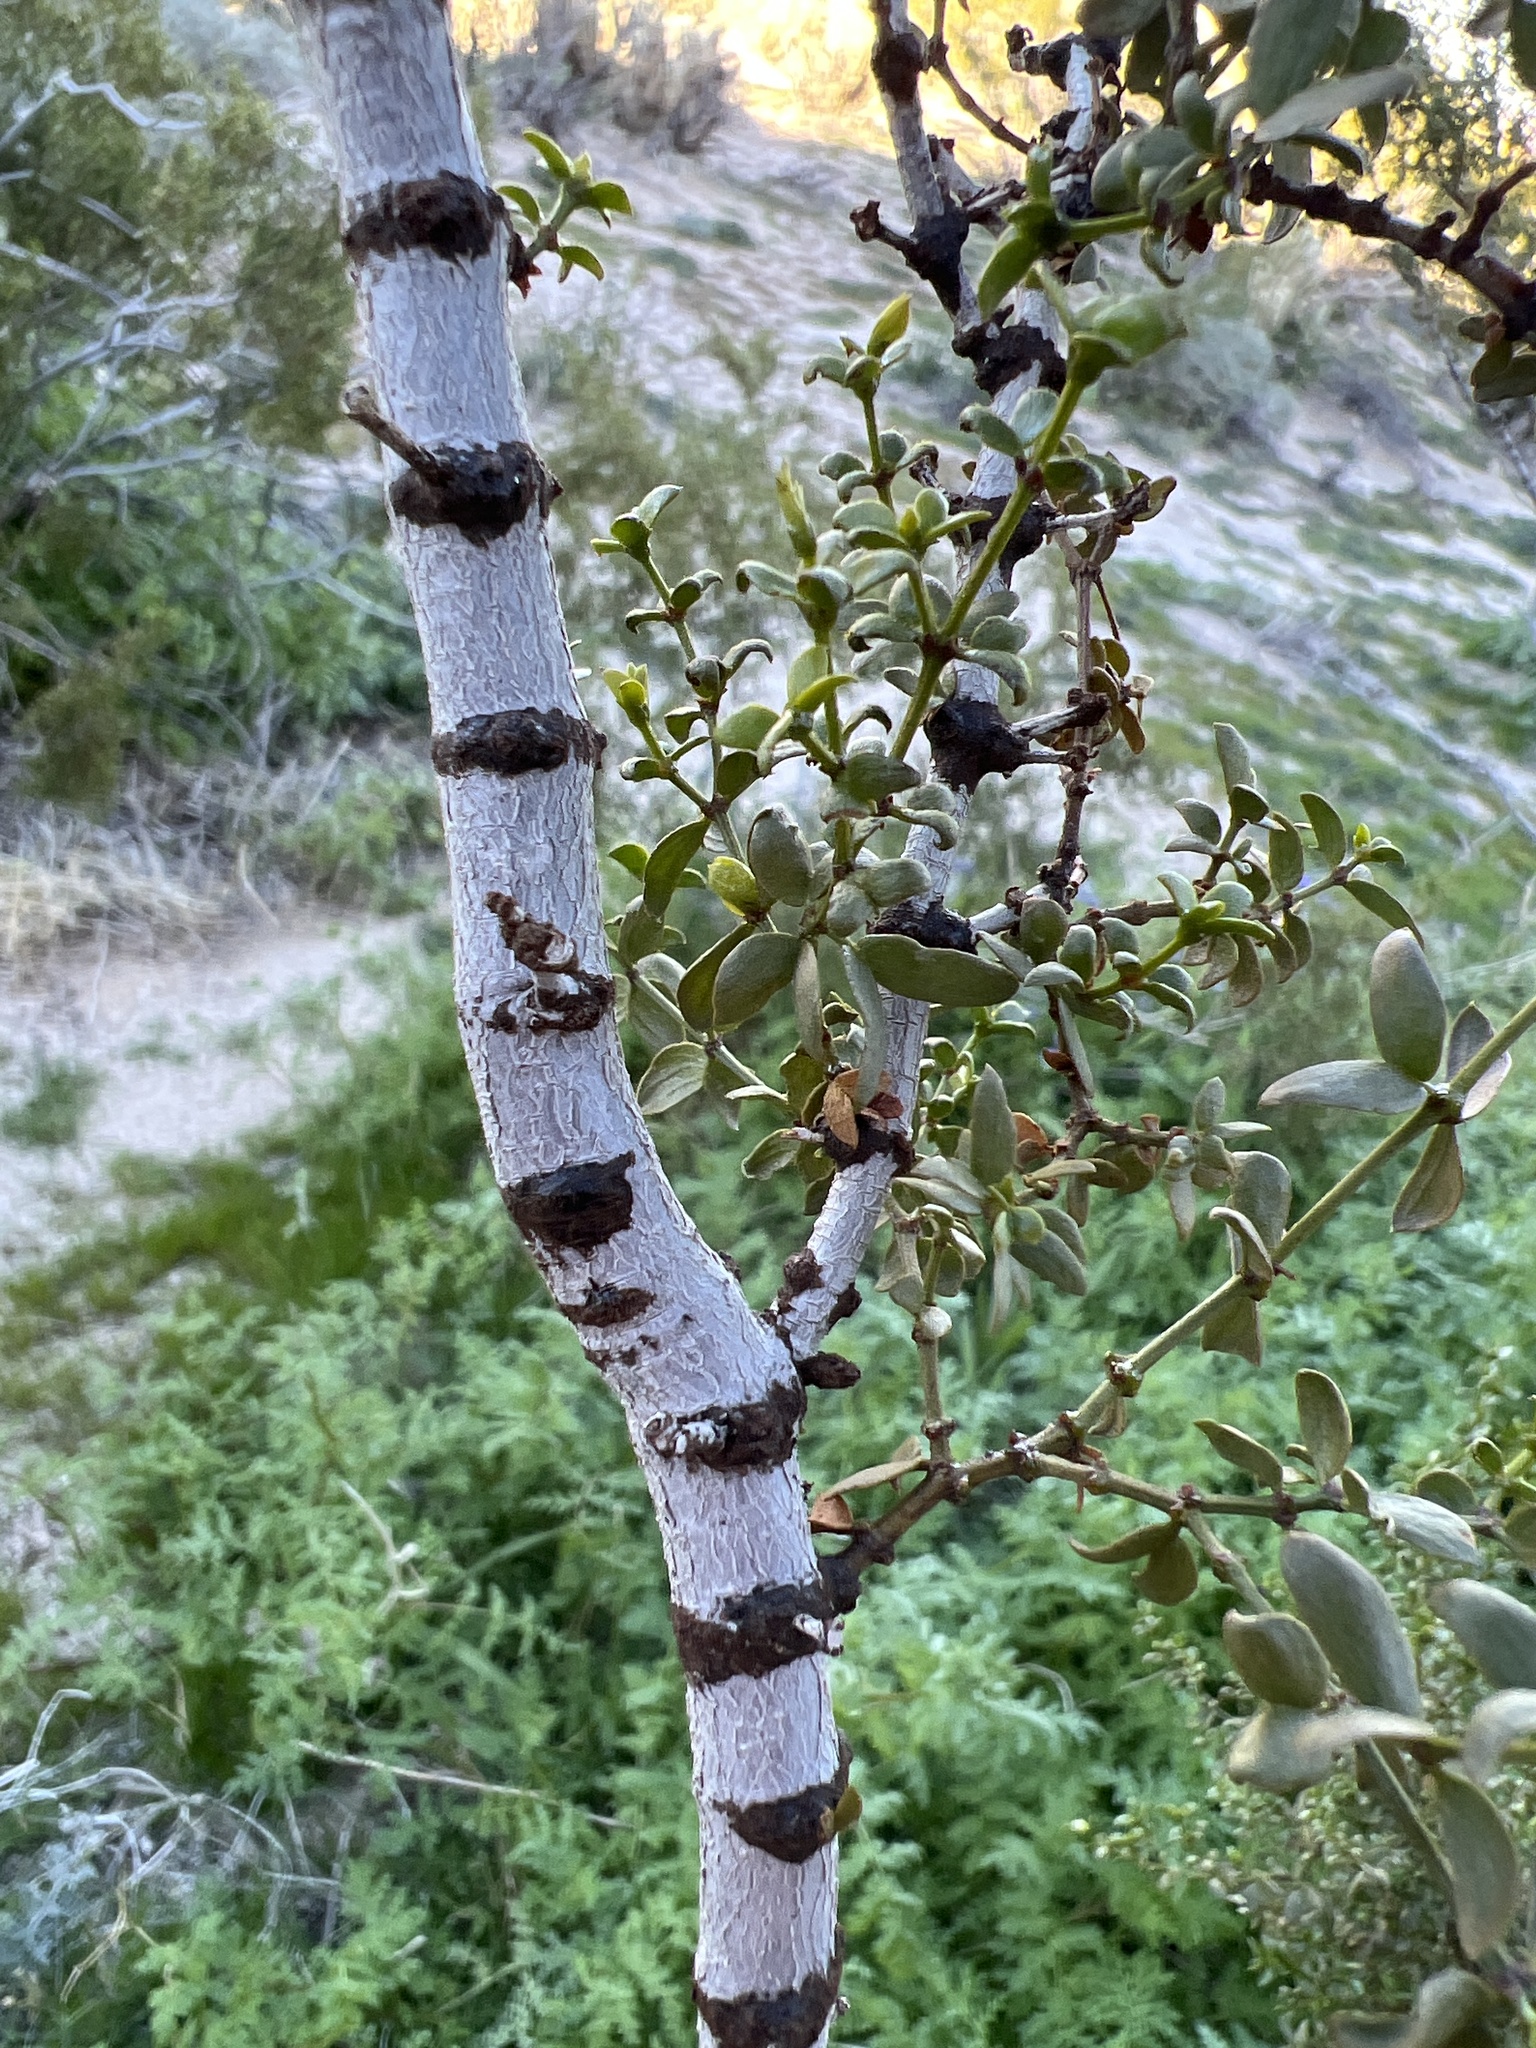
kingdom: Plantae
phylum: Tracheophyta
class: Magnoliopsida
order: Zygophyllales
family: Zygophyllaceae
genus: Larrea
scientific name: Larrea tridentata
